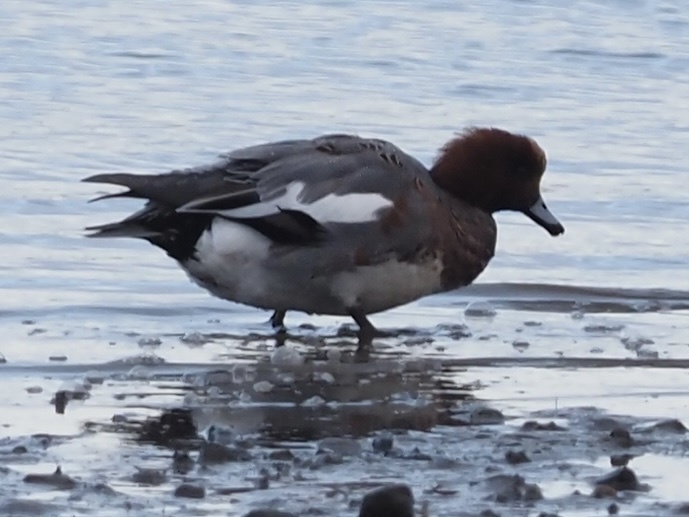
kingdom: Animalia
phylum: Chordata
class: Aves
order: Anseriformes
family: Anatidae
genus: Mareca
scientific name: Mareca penelope
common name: Eurasian wigeon
